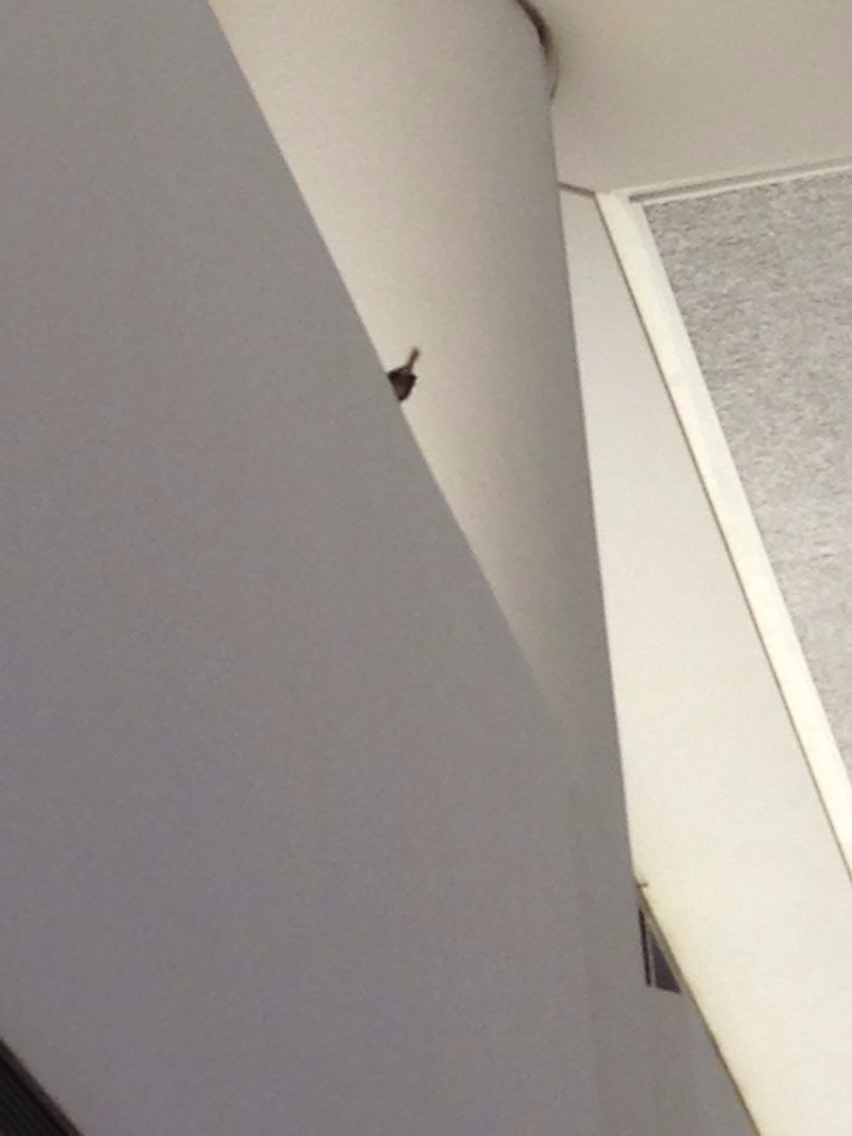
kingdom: Animalia
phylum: Chordata
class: Aves
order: Passeriformes
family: Passeridae
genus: Passer
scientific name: Passer domesticus
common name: House sparrow
